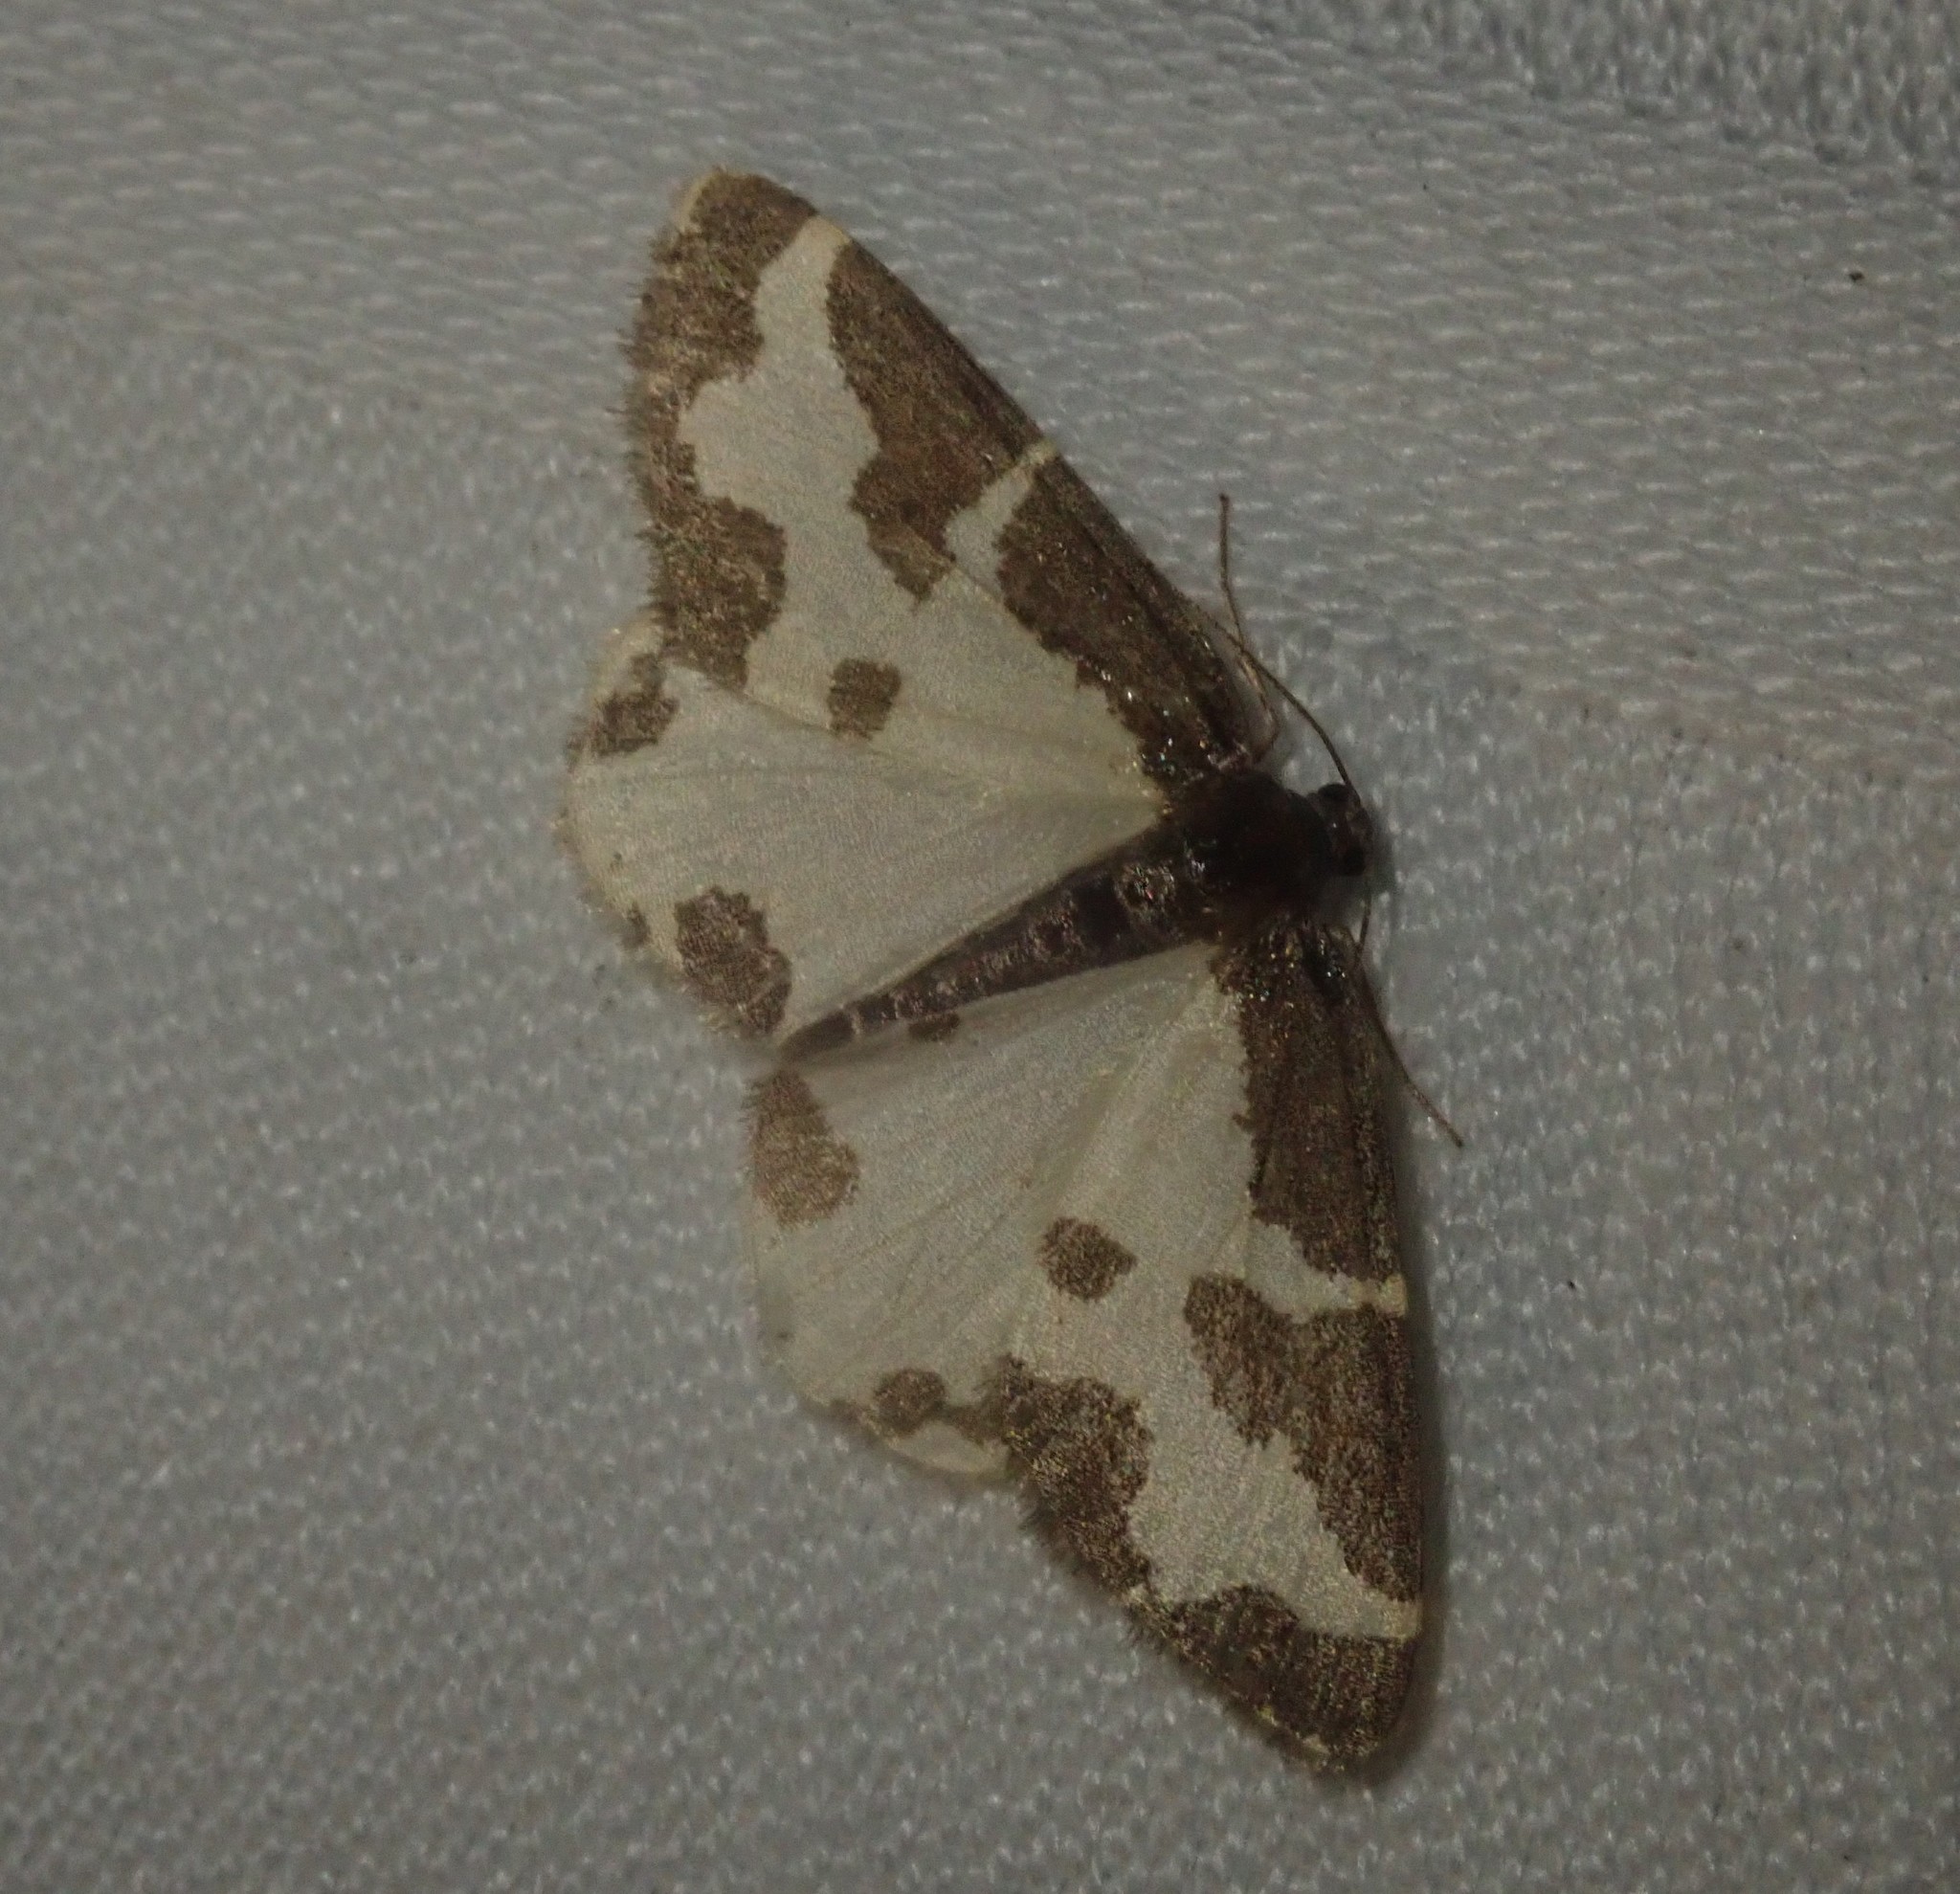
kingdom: Animalia
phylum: Arthropoda
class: Insecta
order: Lepidoptera
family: Geometridae
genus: Lomaspilis
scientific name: Lomaspilis marginata
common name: Clouded border
